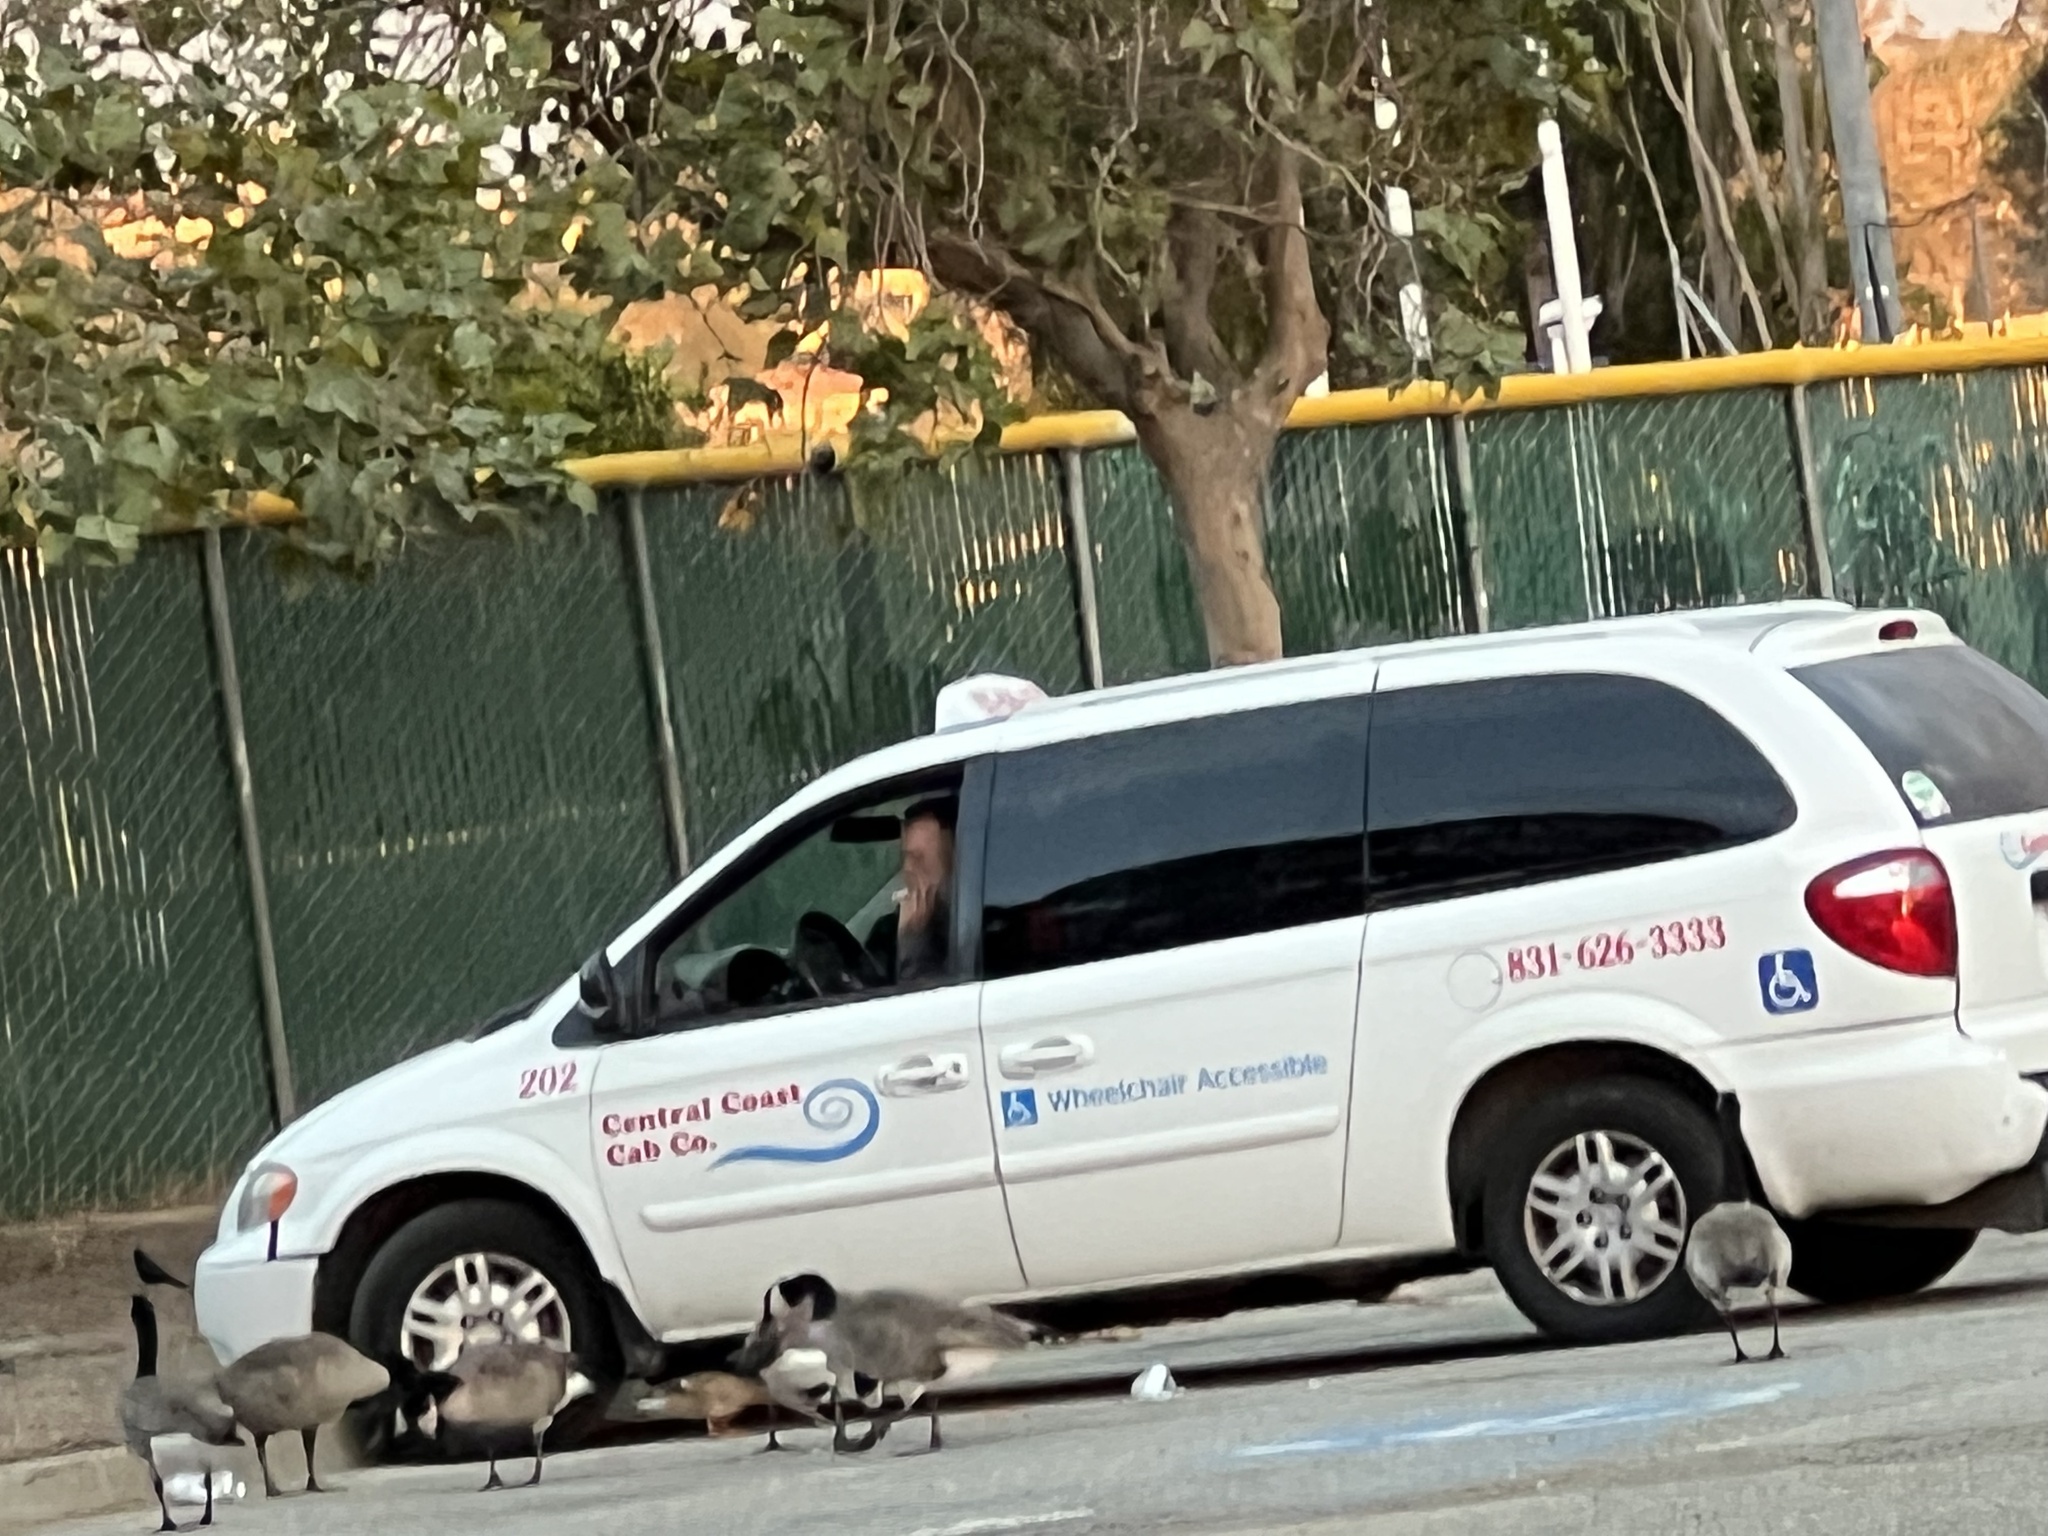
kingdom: Animalia
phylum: Chordata
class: Aves
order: Anseriformes
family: Anatidae
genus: Branta
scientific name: Branta canadensis
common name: Canada goose
